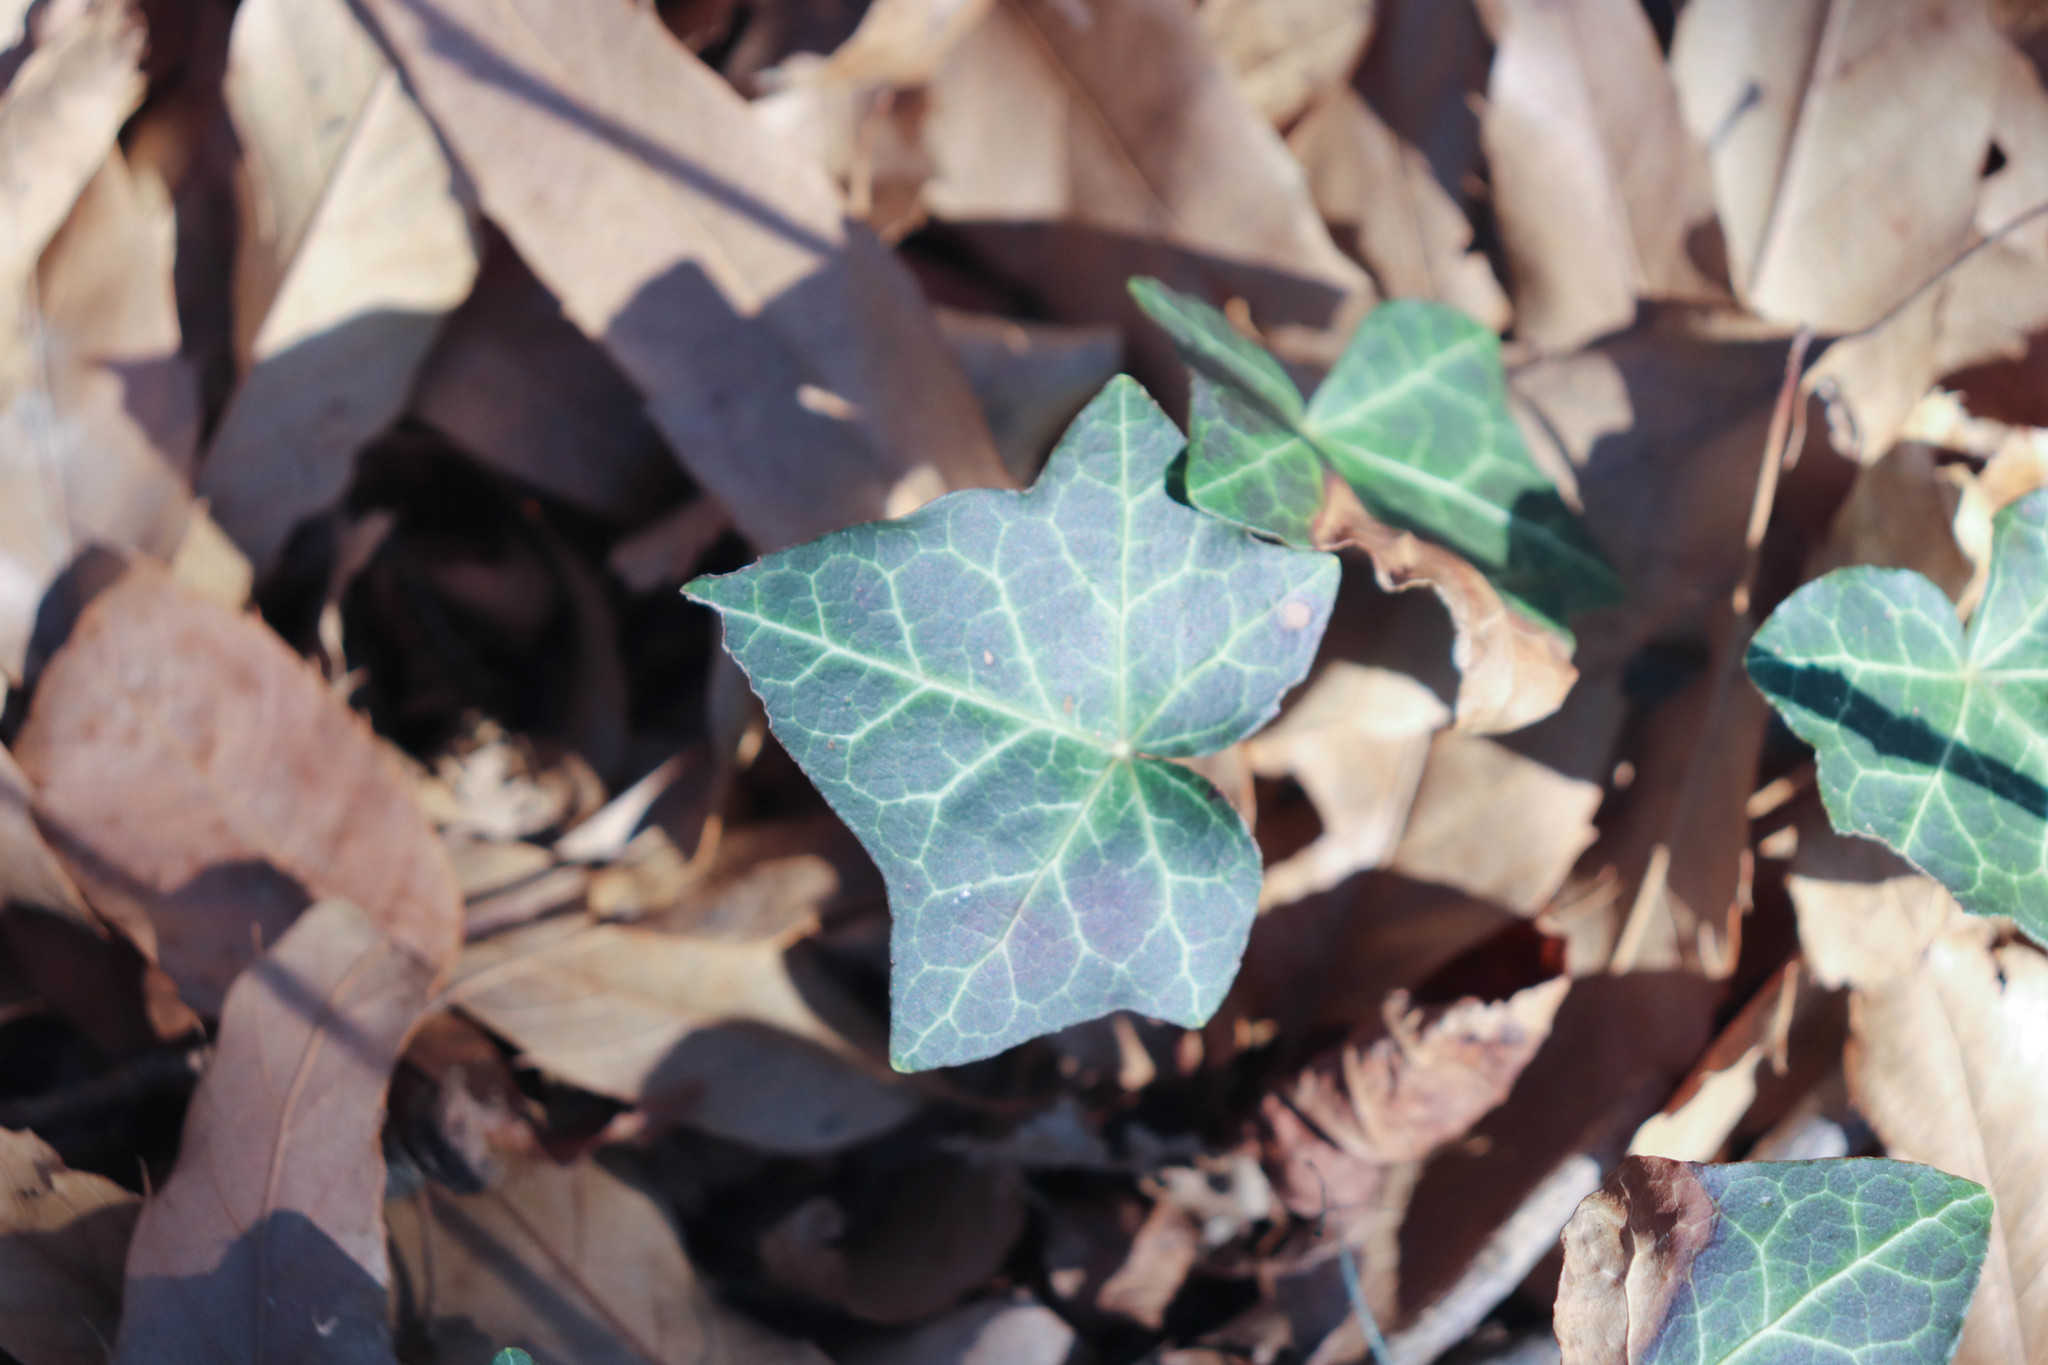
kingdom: Plantae
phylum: Tracheophyta
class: Magnoliopsida
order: Apiales
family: Araliaceae
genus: Hedera
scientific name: Hedera helix
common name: Ivy
